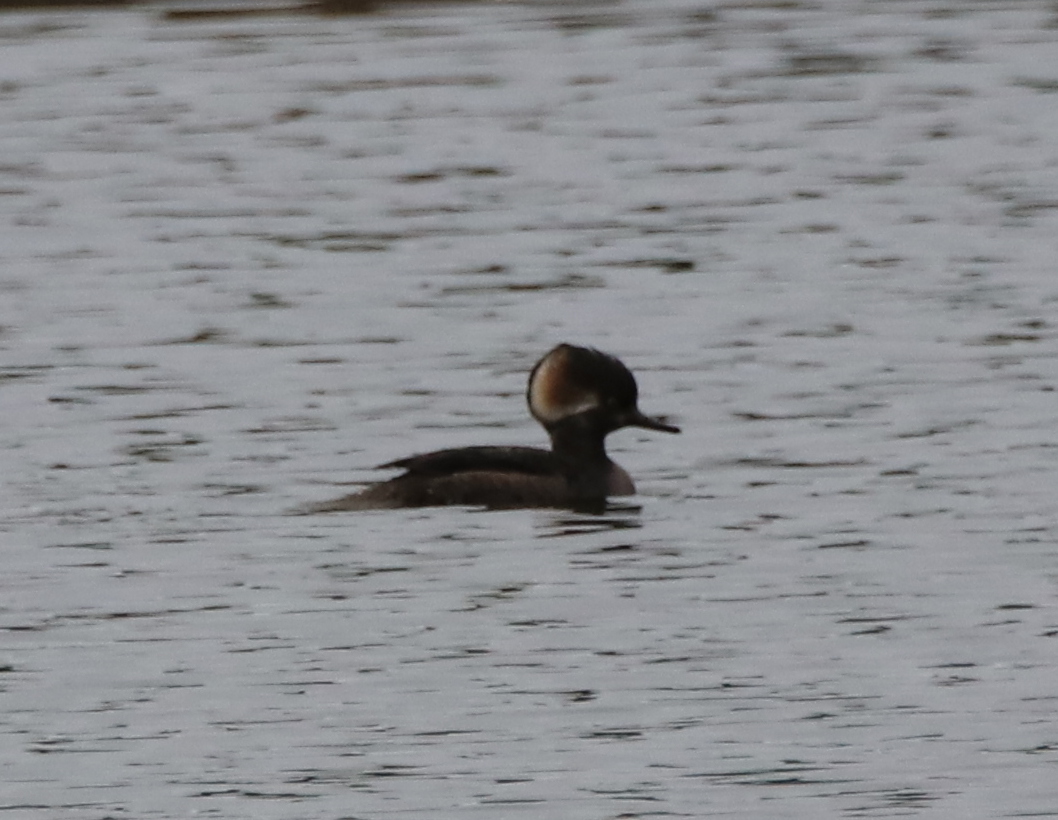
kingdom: Animalia
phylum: Chordata
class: Aves
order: Anseriformes
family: Anatidae
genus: Lophodytes
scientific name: Lophodytes cucullatus
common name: Hooded merganser
